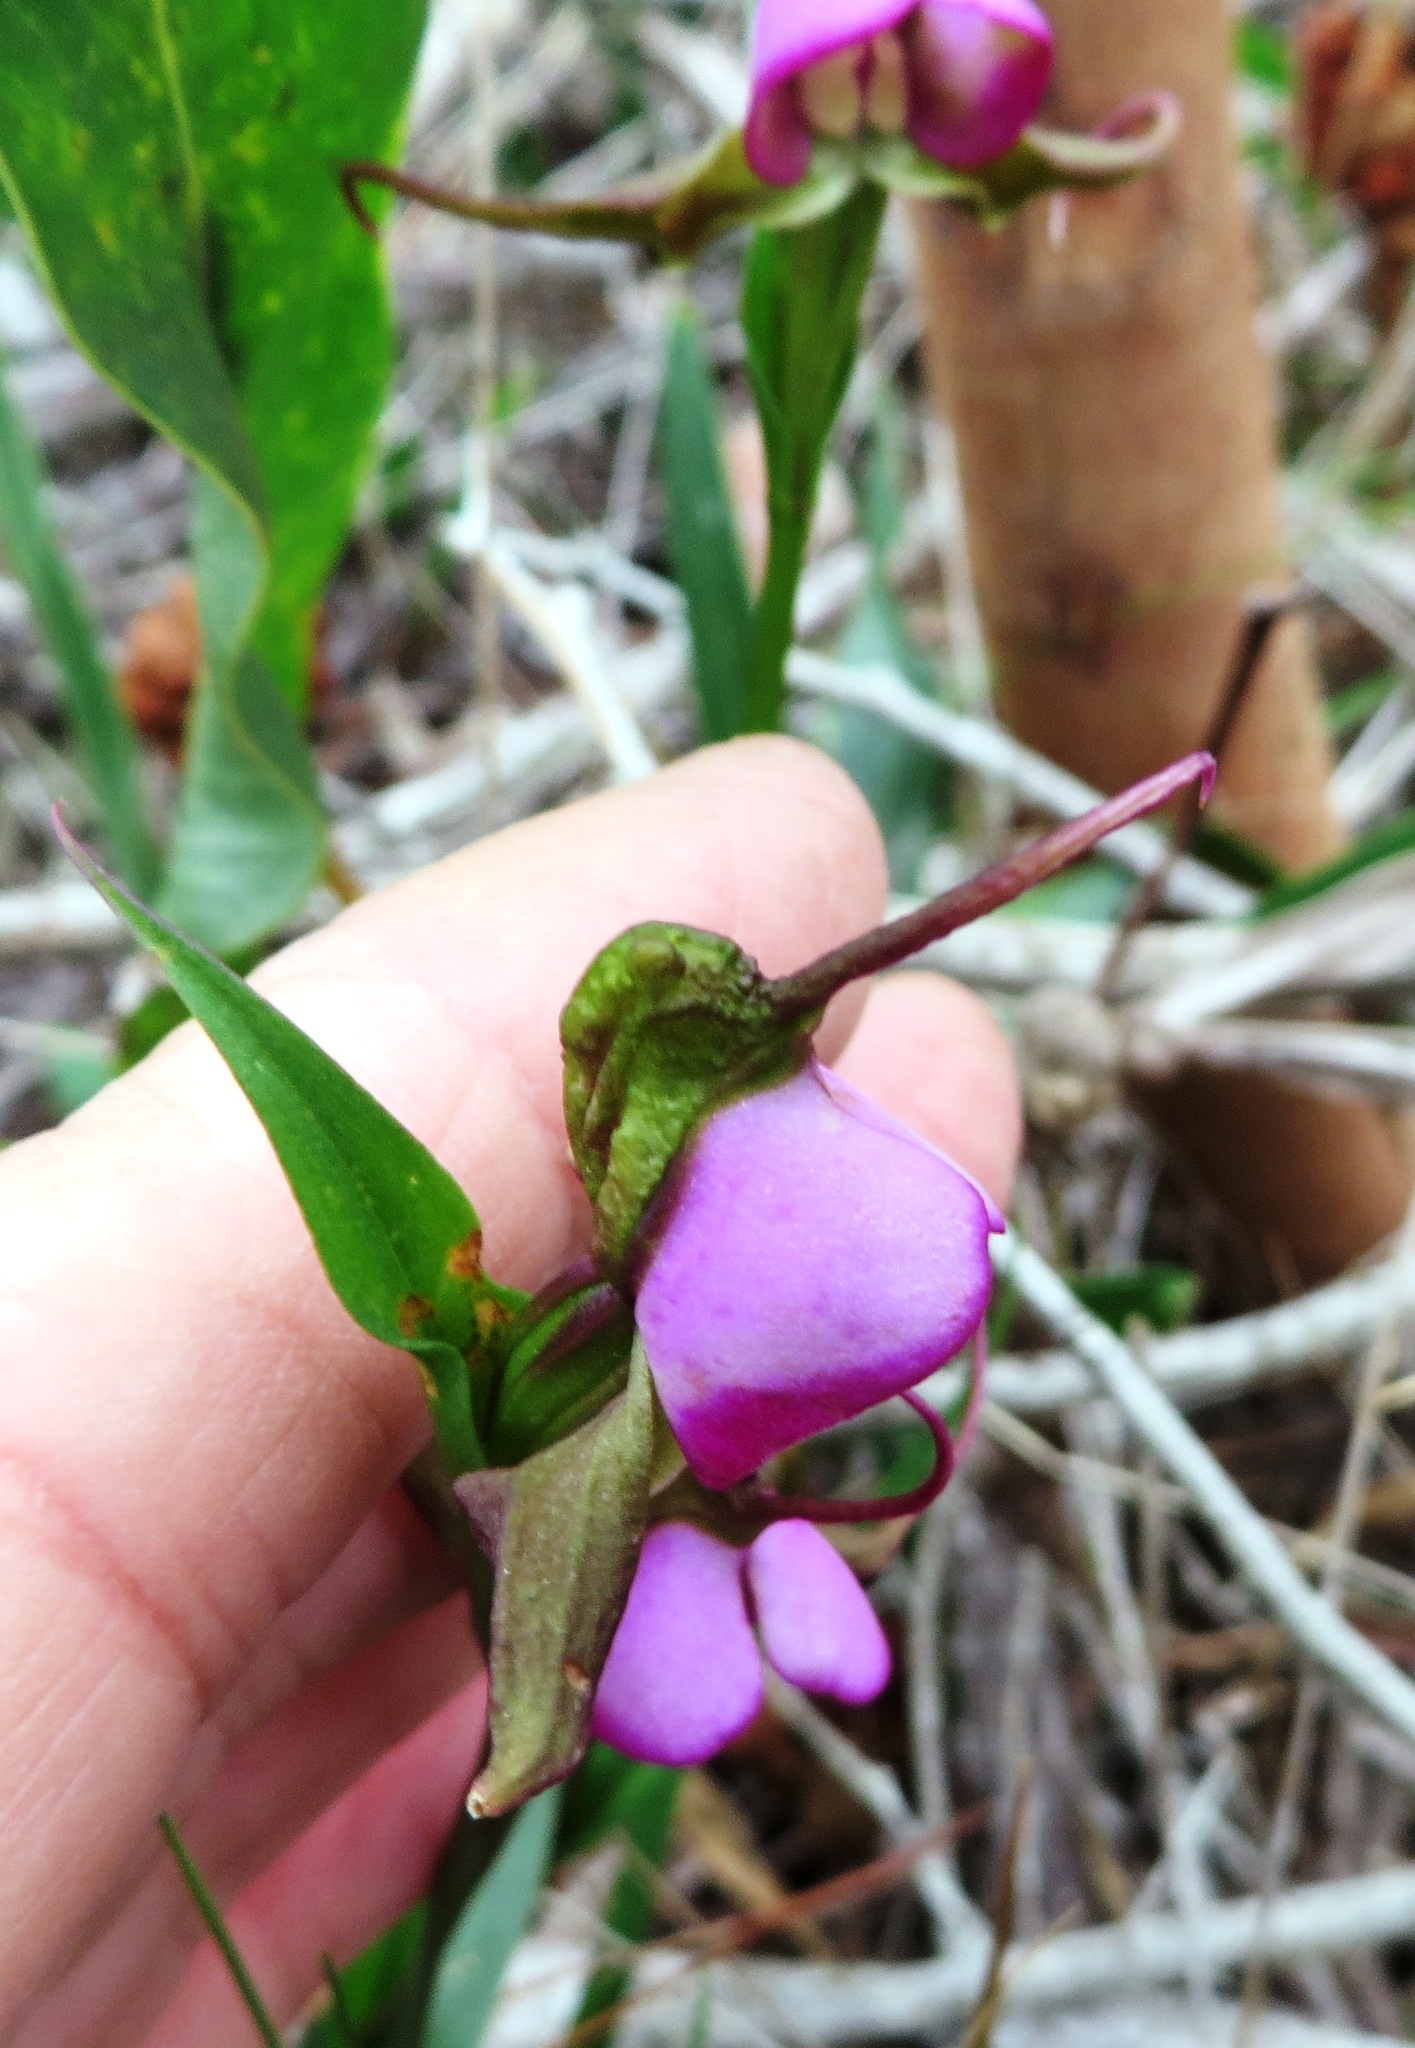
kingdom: Plantae
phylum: Tracheophyta
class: Liliopsida
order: Asparagales
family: Orchidaceae
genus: Disperis
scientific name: Disperis capensis
